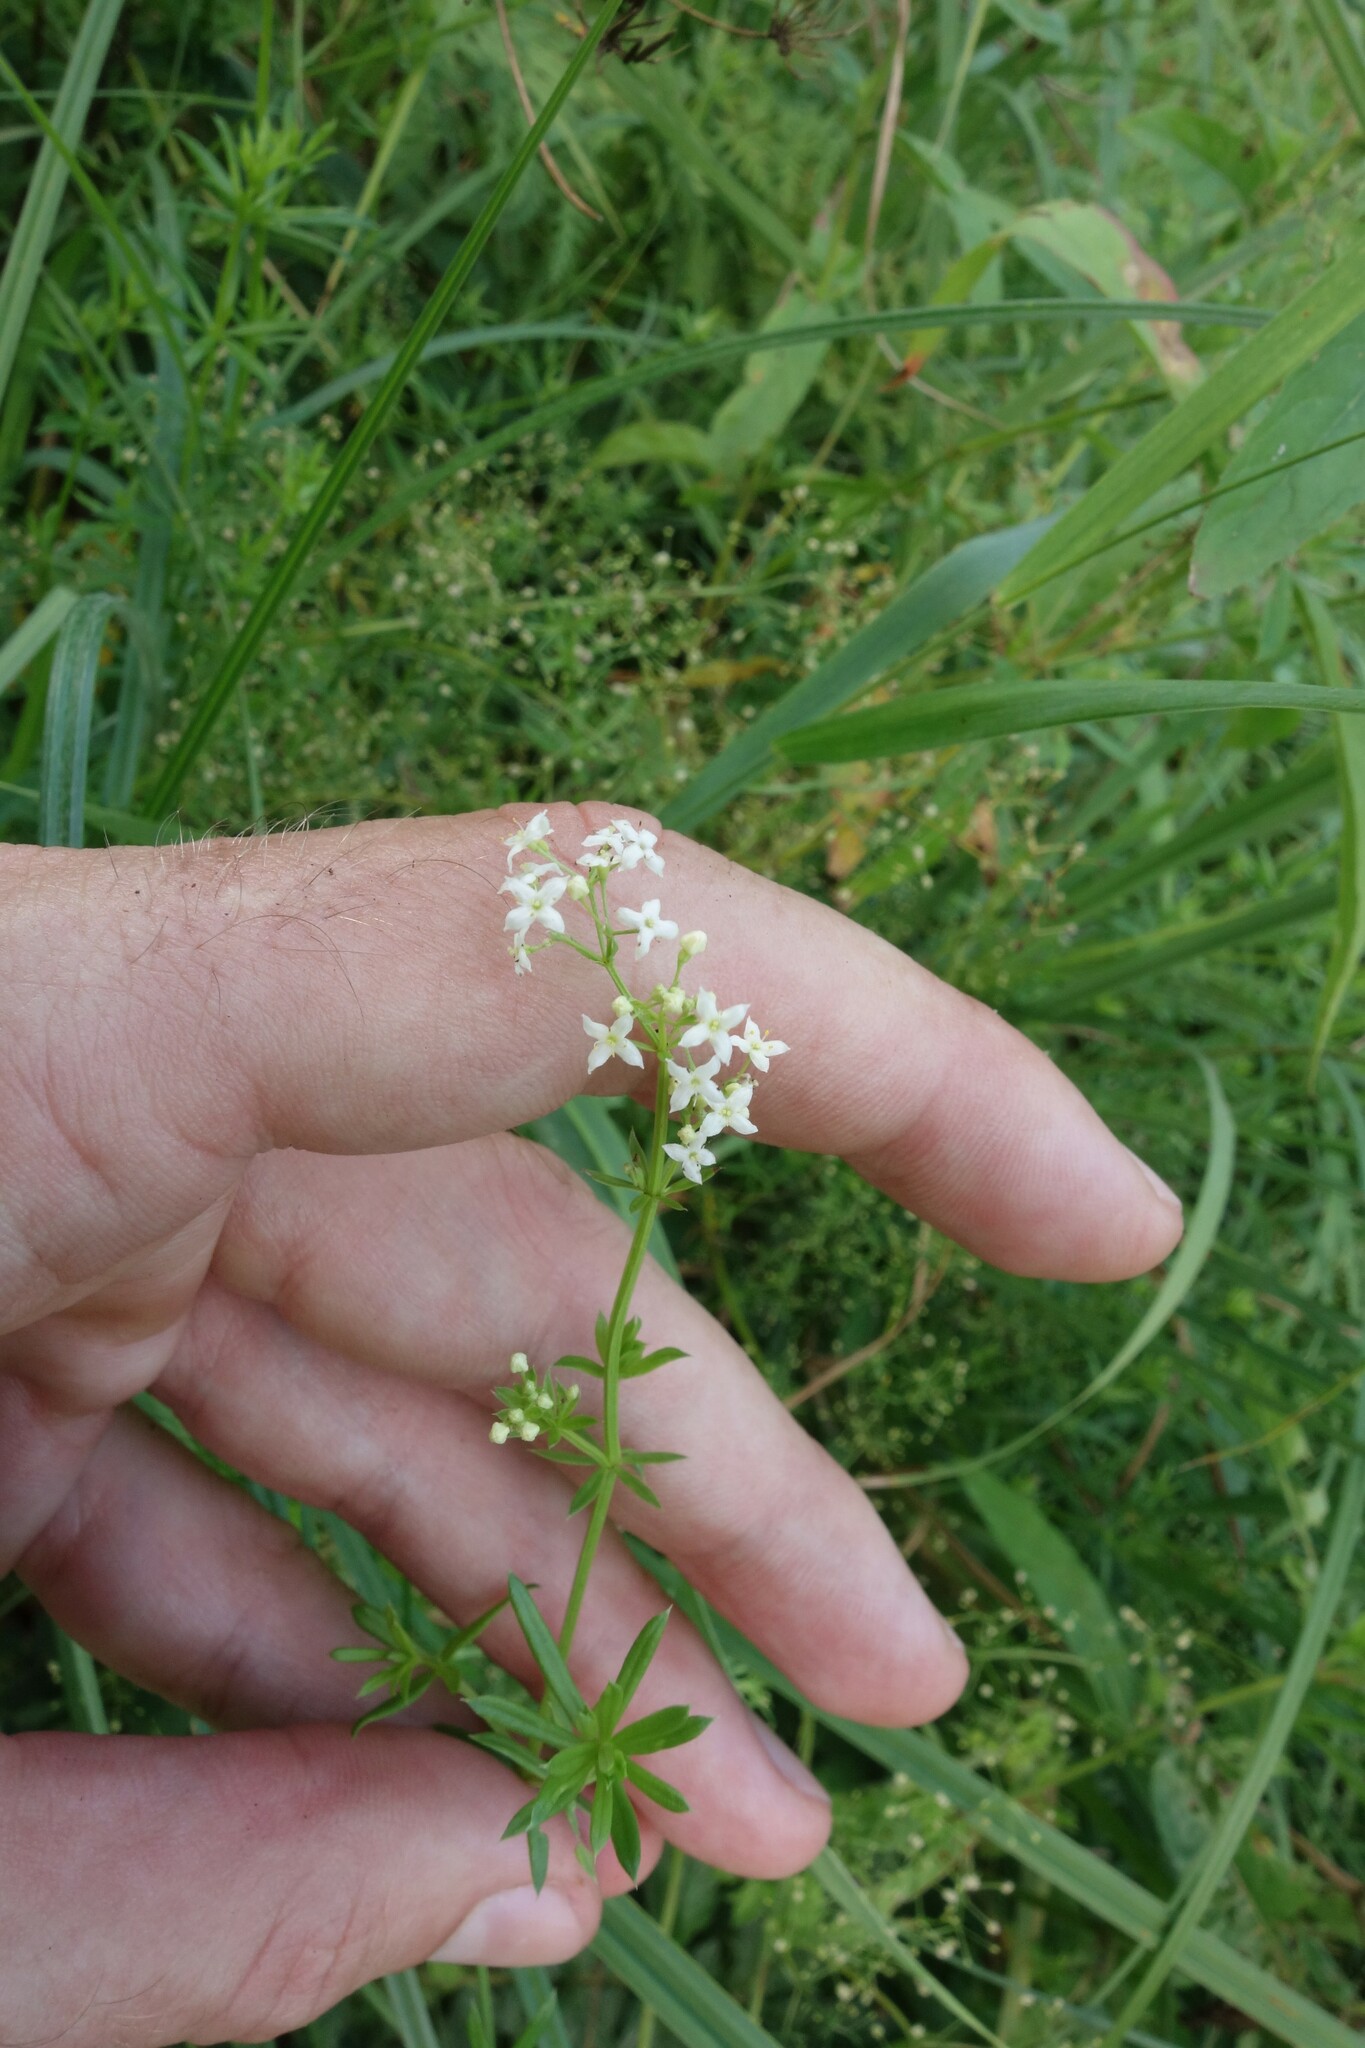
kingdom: Plantae
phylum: Tracheophyta
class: Magnoliopsida
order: Gentianales
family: Rubiaceae
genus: Galium
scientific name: Galium mollugo
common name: Hedge bedstraw
